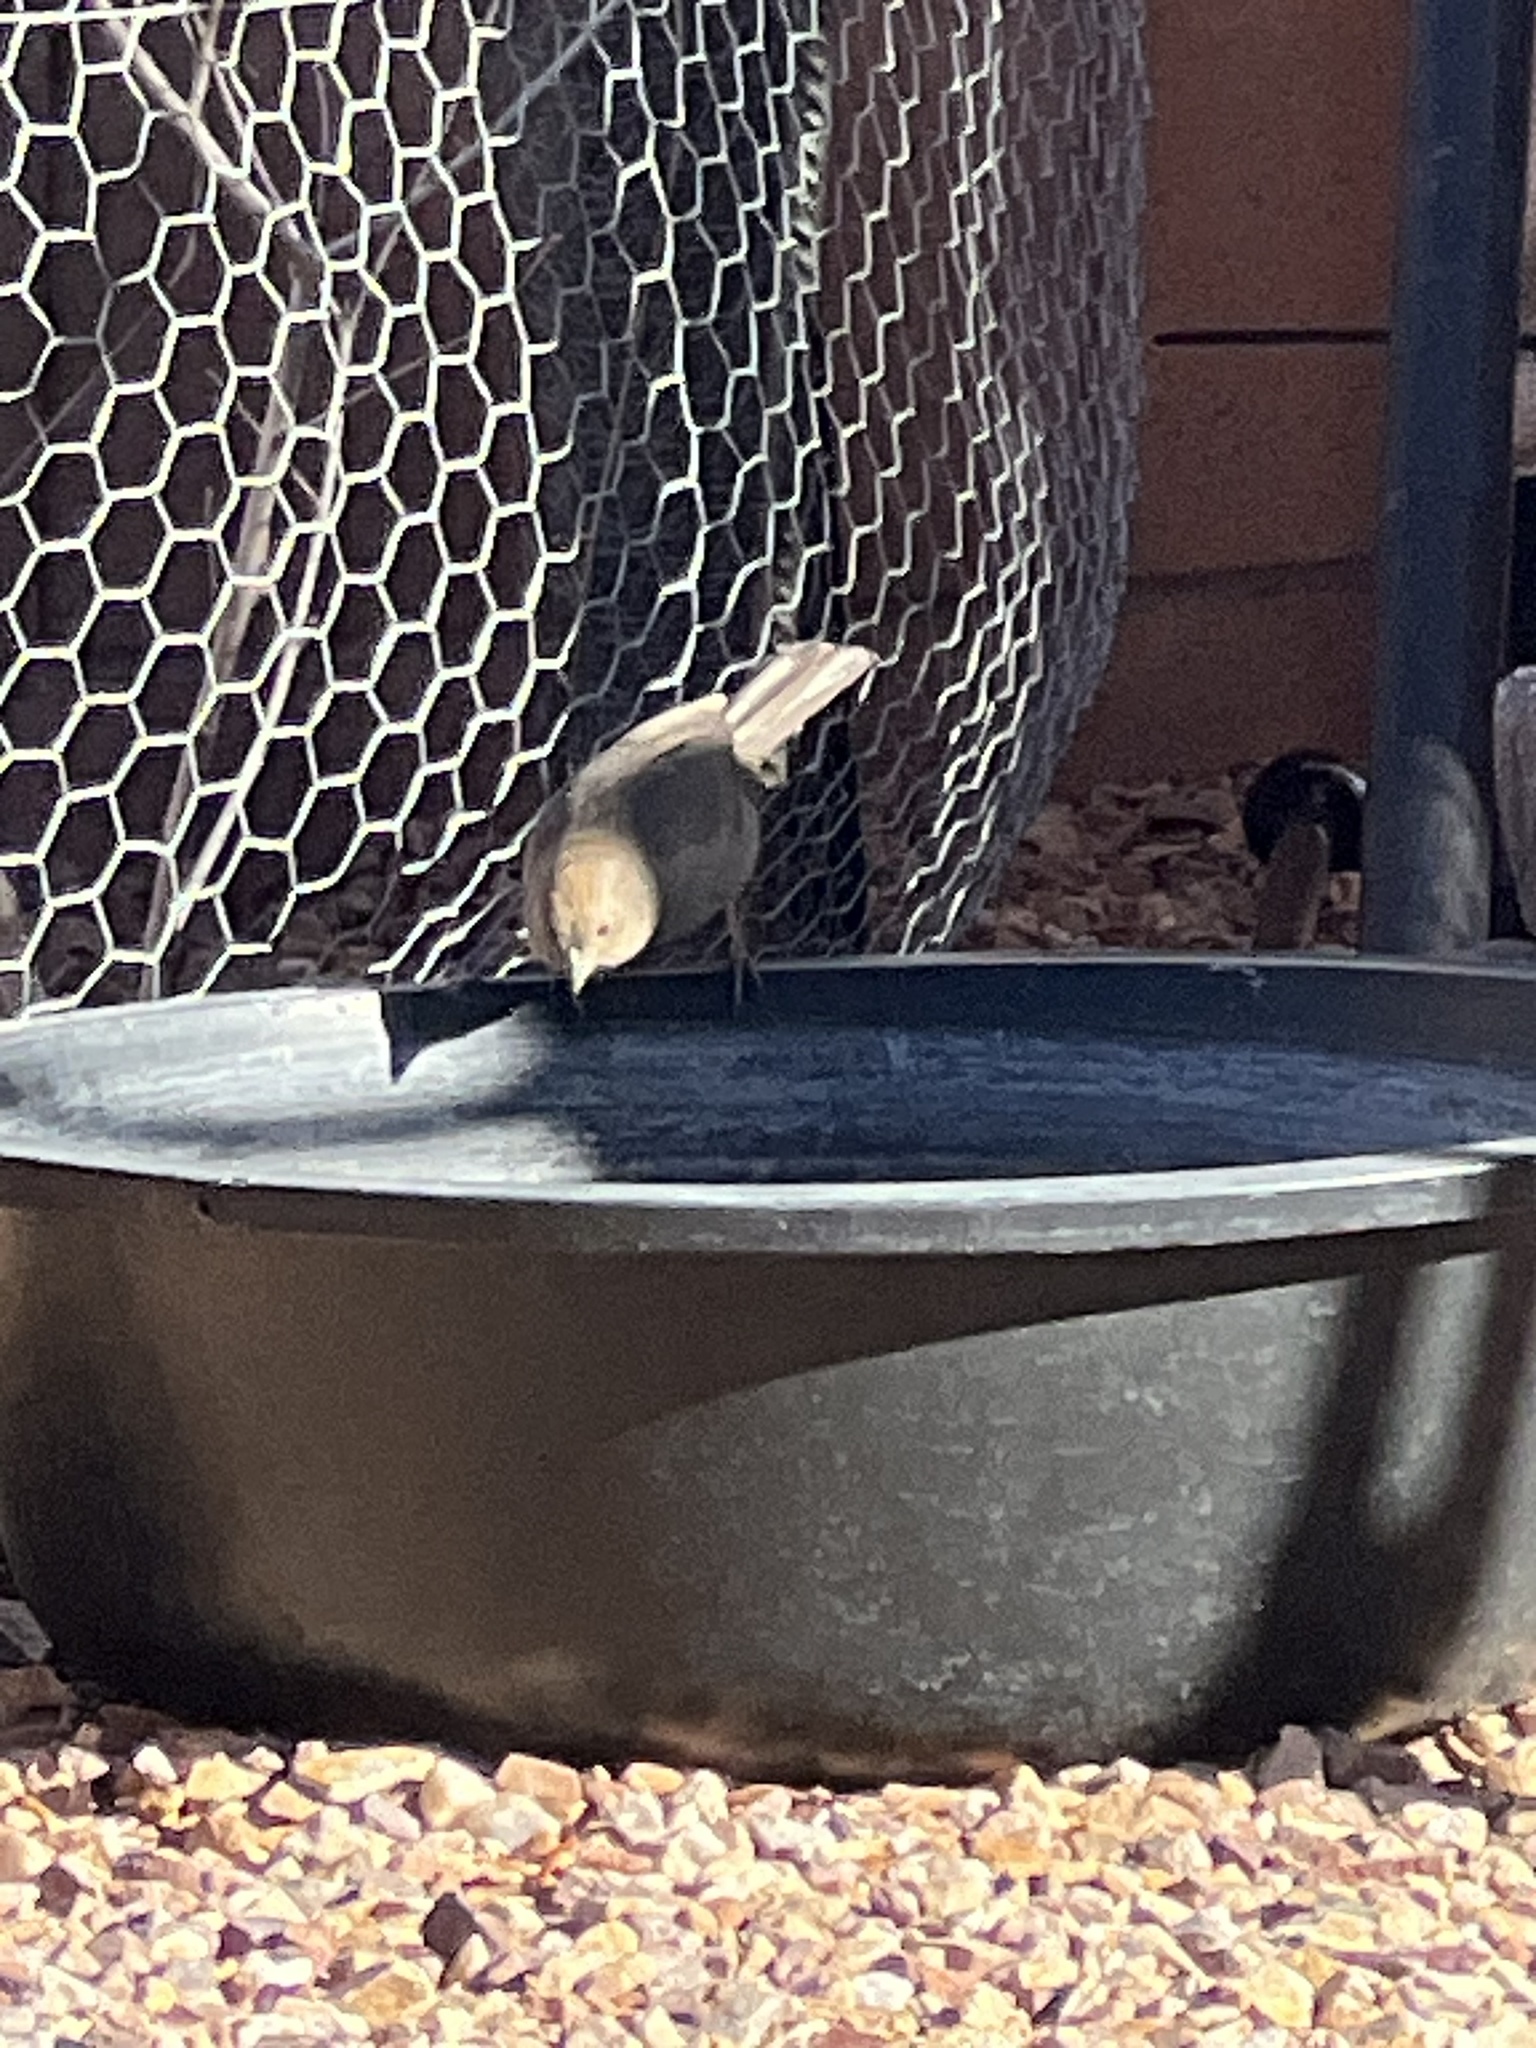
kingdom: Animalia
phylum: Chordata
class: Aves
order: Passeriformes
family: Passerellidae
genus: Melozone
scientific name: Melozone fusca
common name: Canyon towhee
